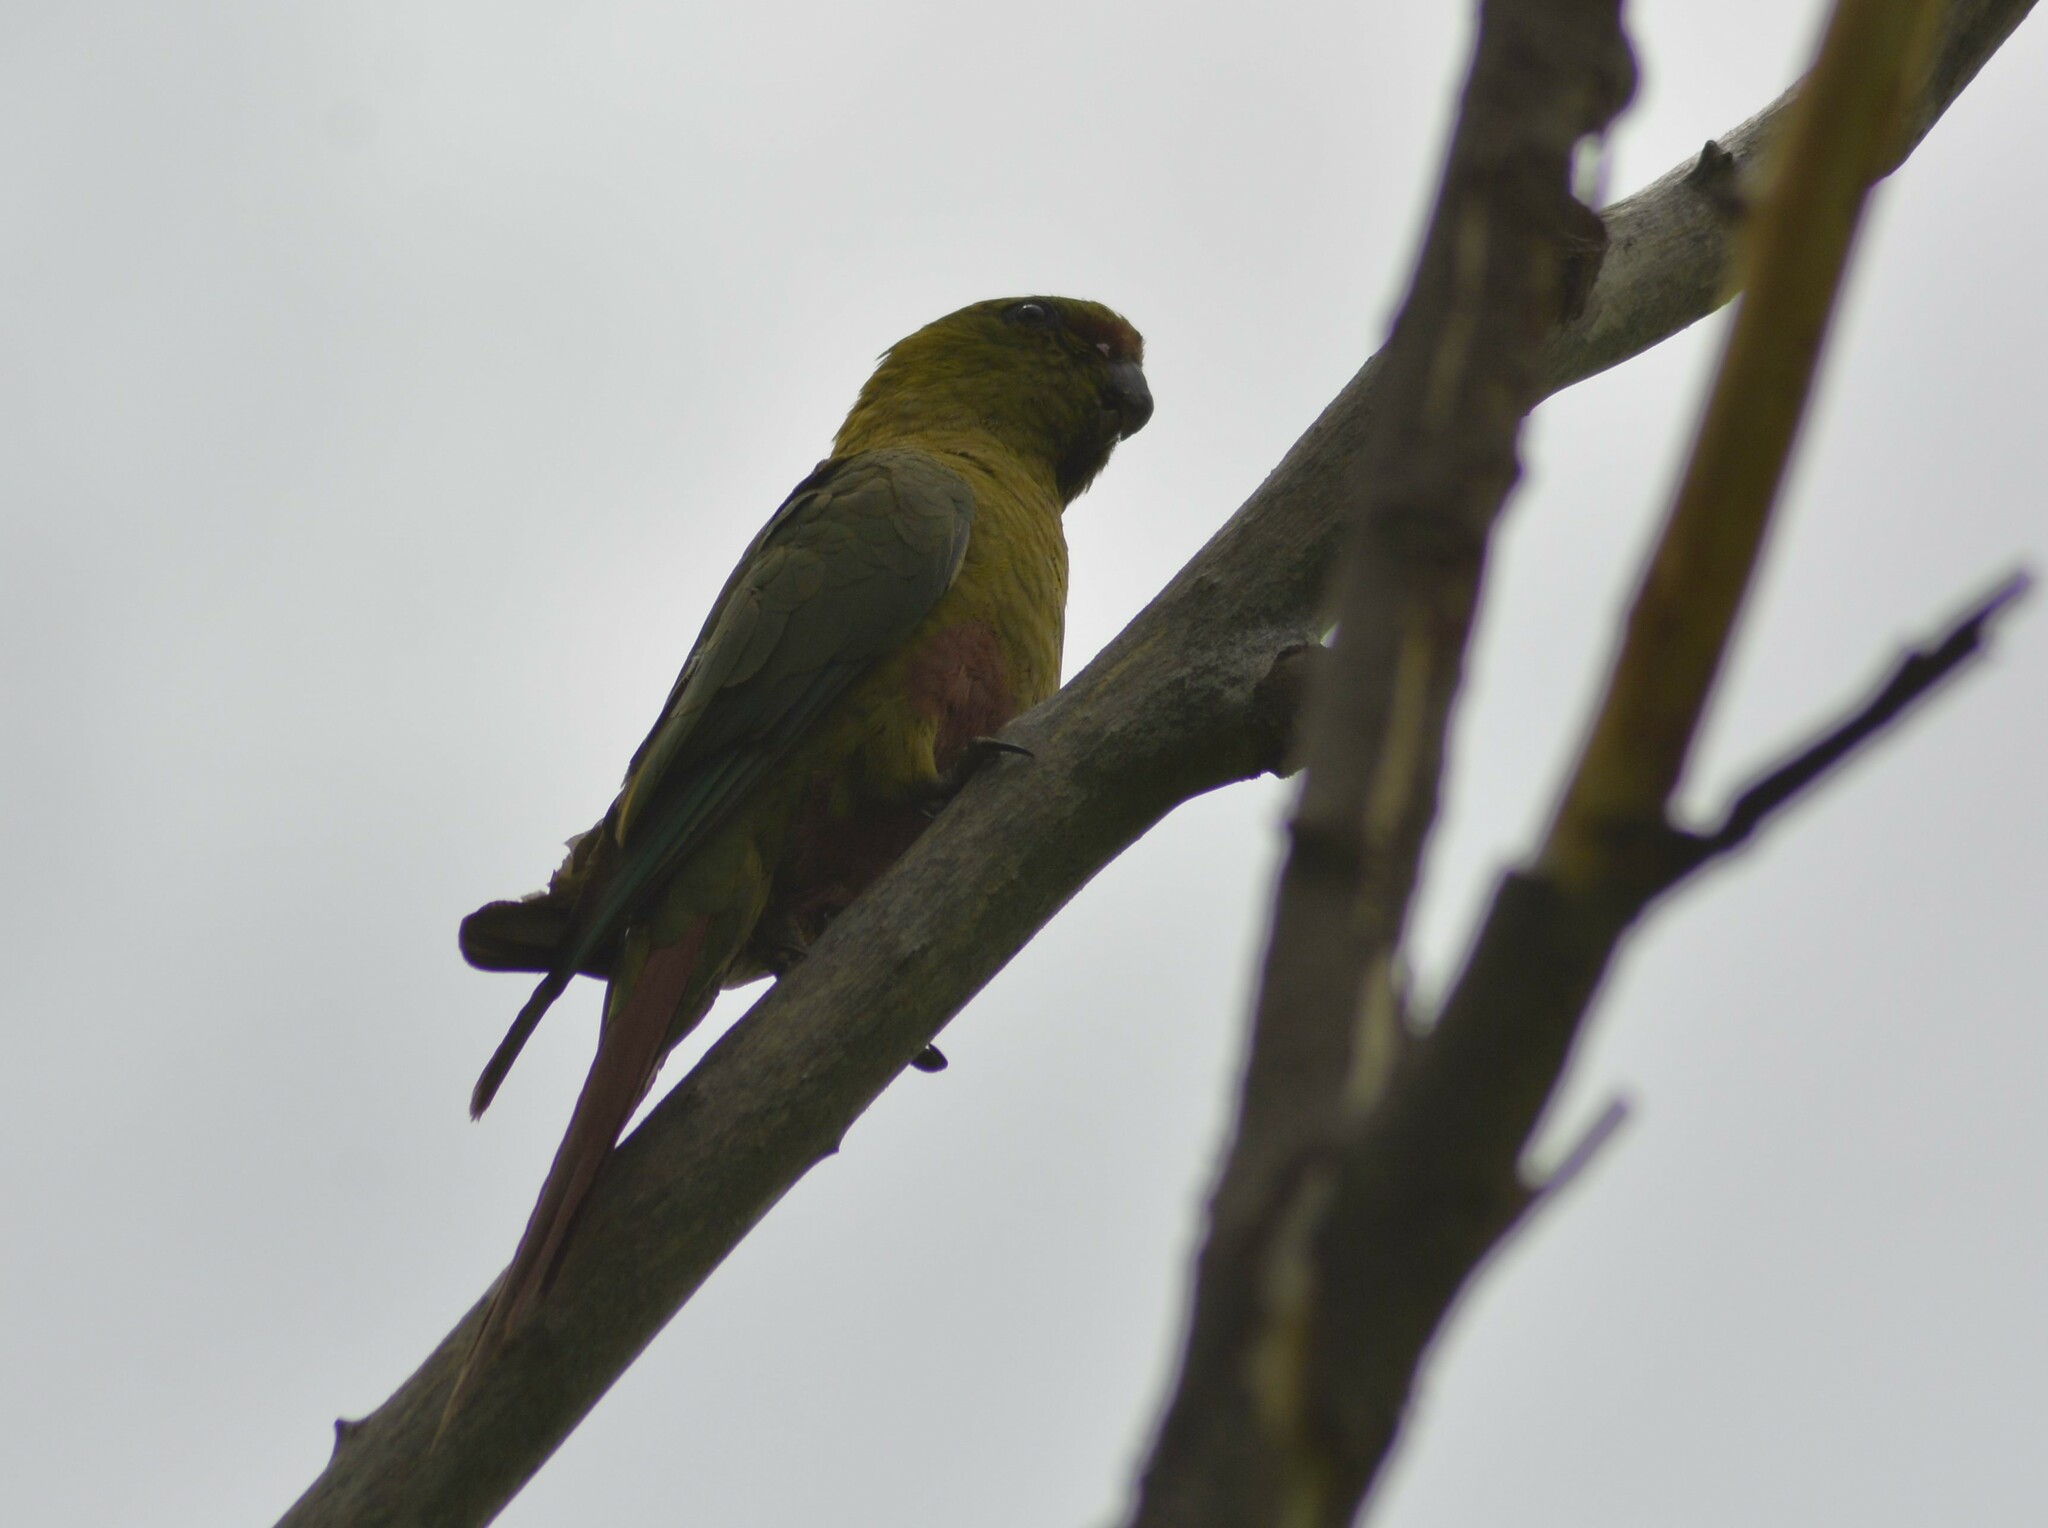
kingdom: Animalia
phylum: Chordata
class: Aves
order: Psittaciformes
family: Psittacidae
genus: Enicognathus
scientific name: Enicognathus ferrugineus
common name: Austral parakeet
